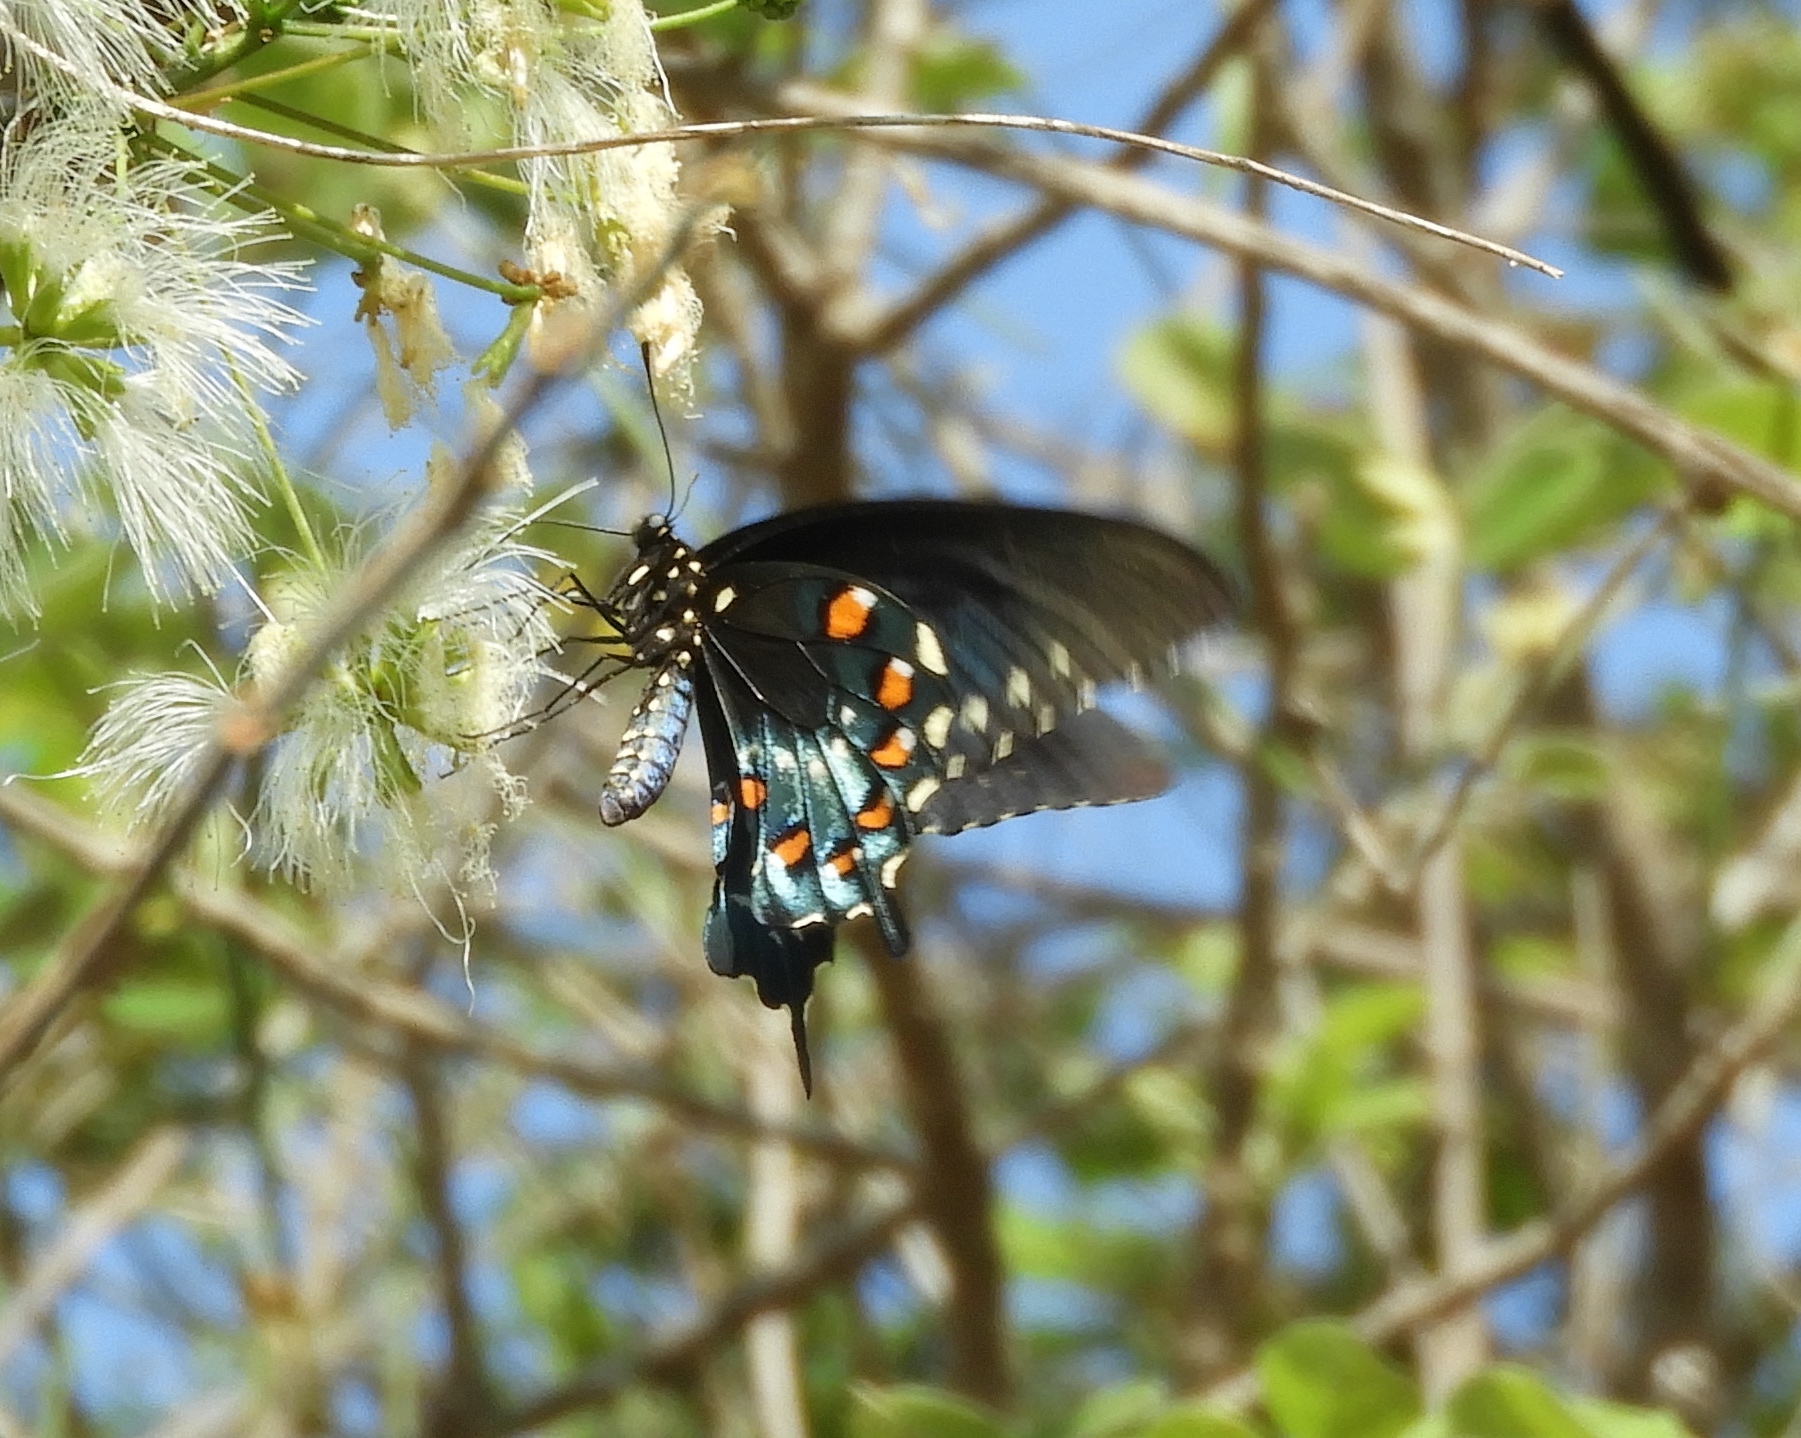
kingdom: Animalia
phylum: Arthropoda
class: Insecta
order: Lepidoptera
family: Papilionidae
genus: Battus
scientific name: Battus philenor
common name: Pipevine swallowtail
